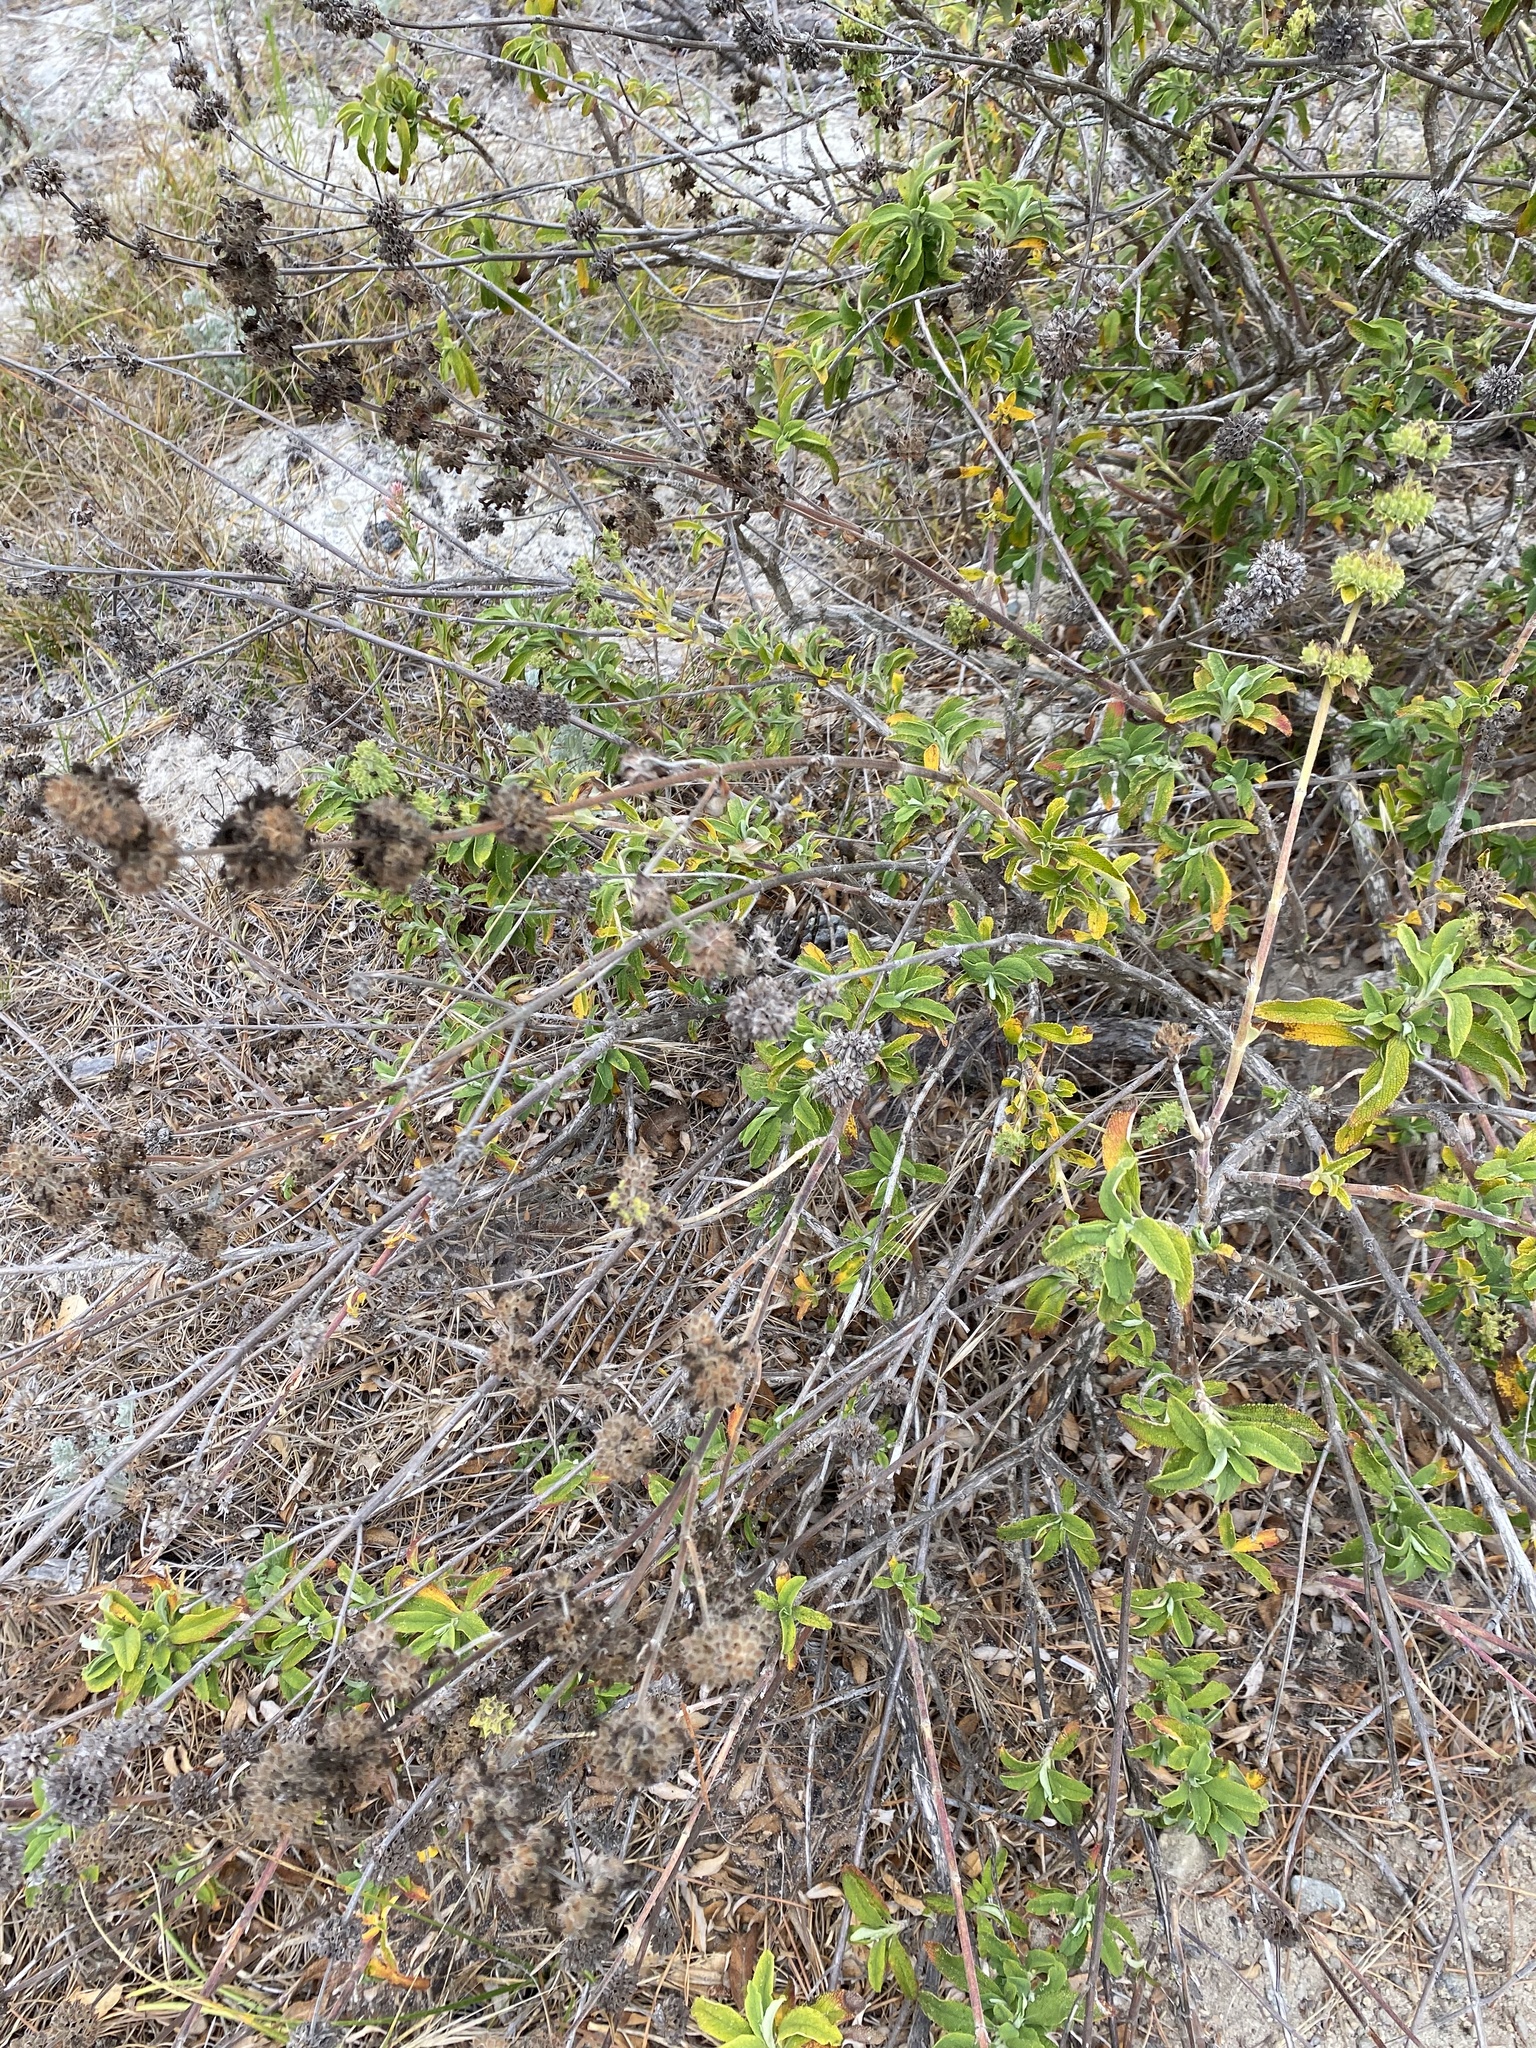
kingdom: Plantae
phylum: Tracheophyta
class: Magnoliopsida
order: Lamiales
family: Lamiaceae
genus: Salvia
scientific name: Salvia mellifera
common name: Black sage
